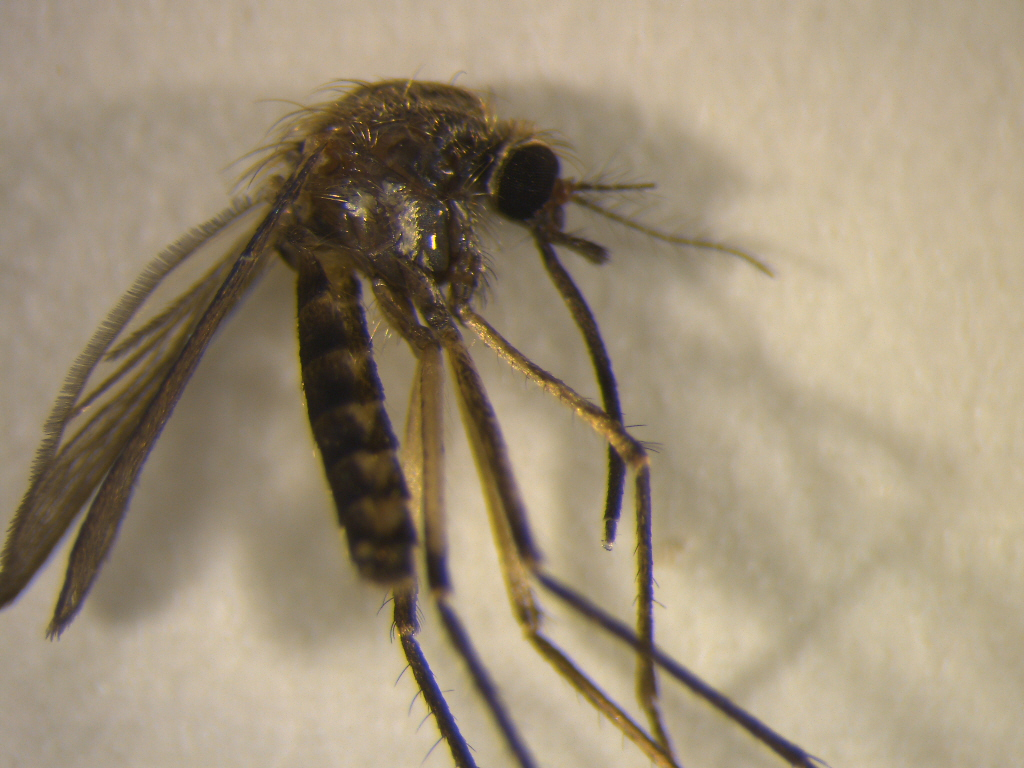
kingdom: Animalia
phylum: Arthropoda
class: Insecta
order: Diptera
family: Culicidae
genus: Coquillettidia
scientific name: Coquillettidia iracunda
